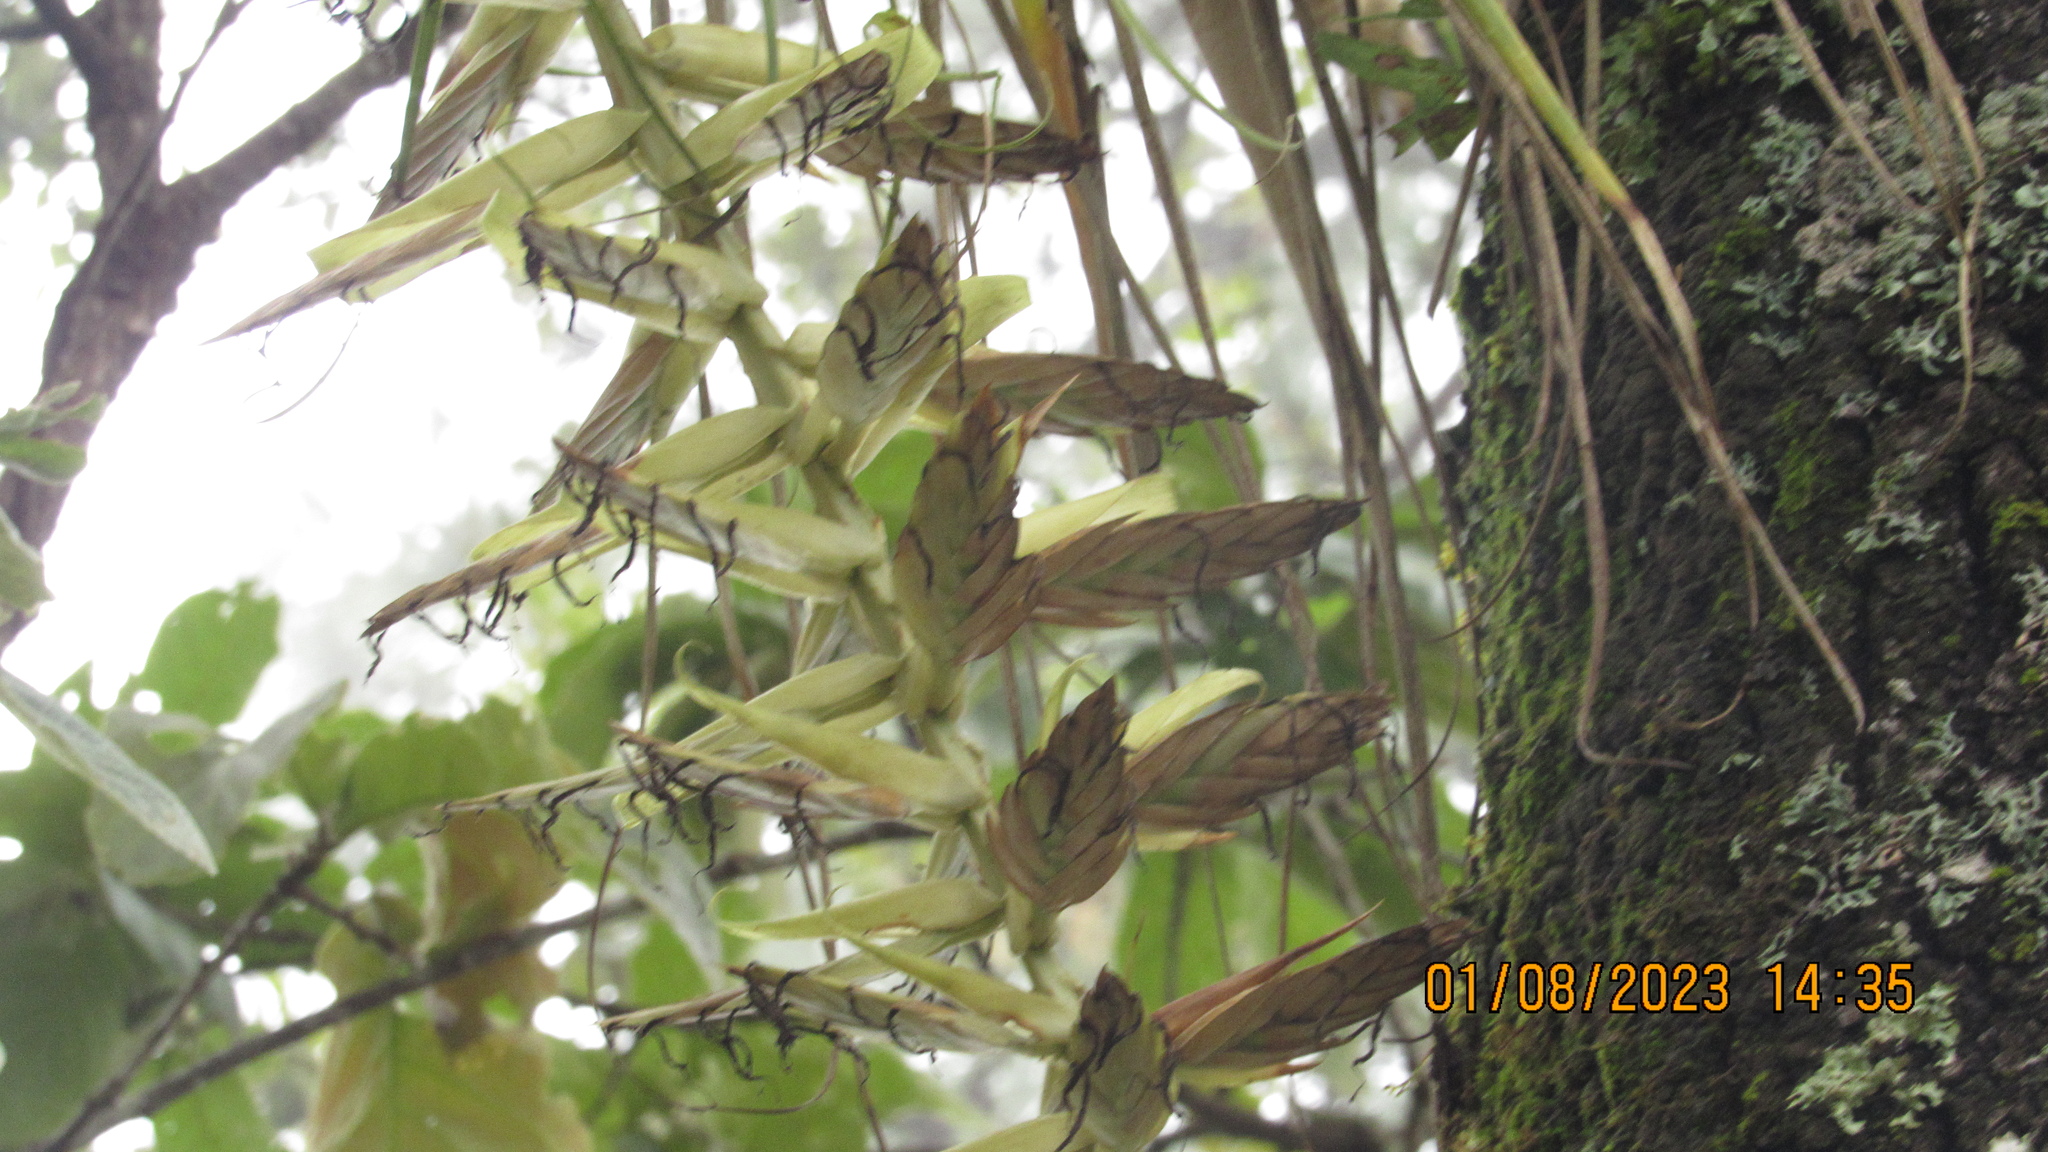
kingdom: Plantae
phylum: Tracheophyta
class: Liliopsida
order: Poales
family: Bromeliaceae
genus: Tillandsia
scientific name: Tillandsia prodigiosa
